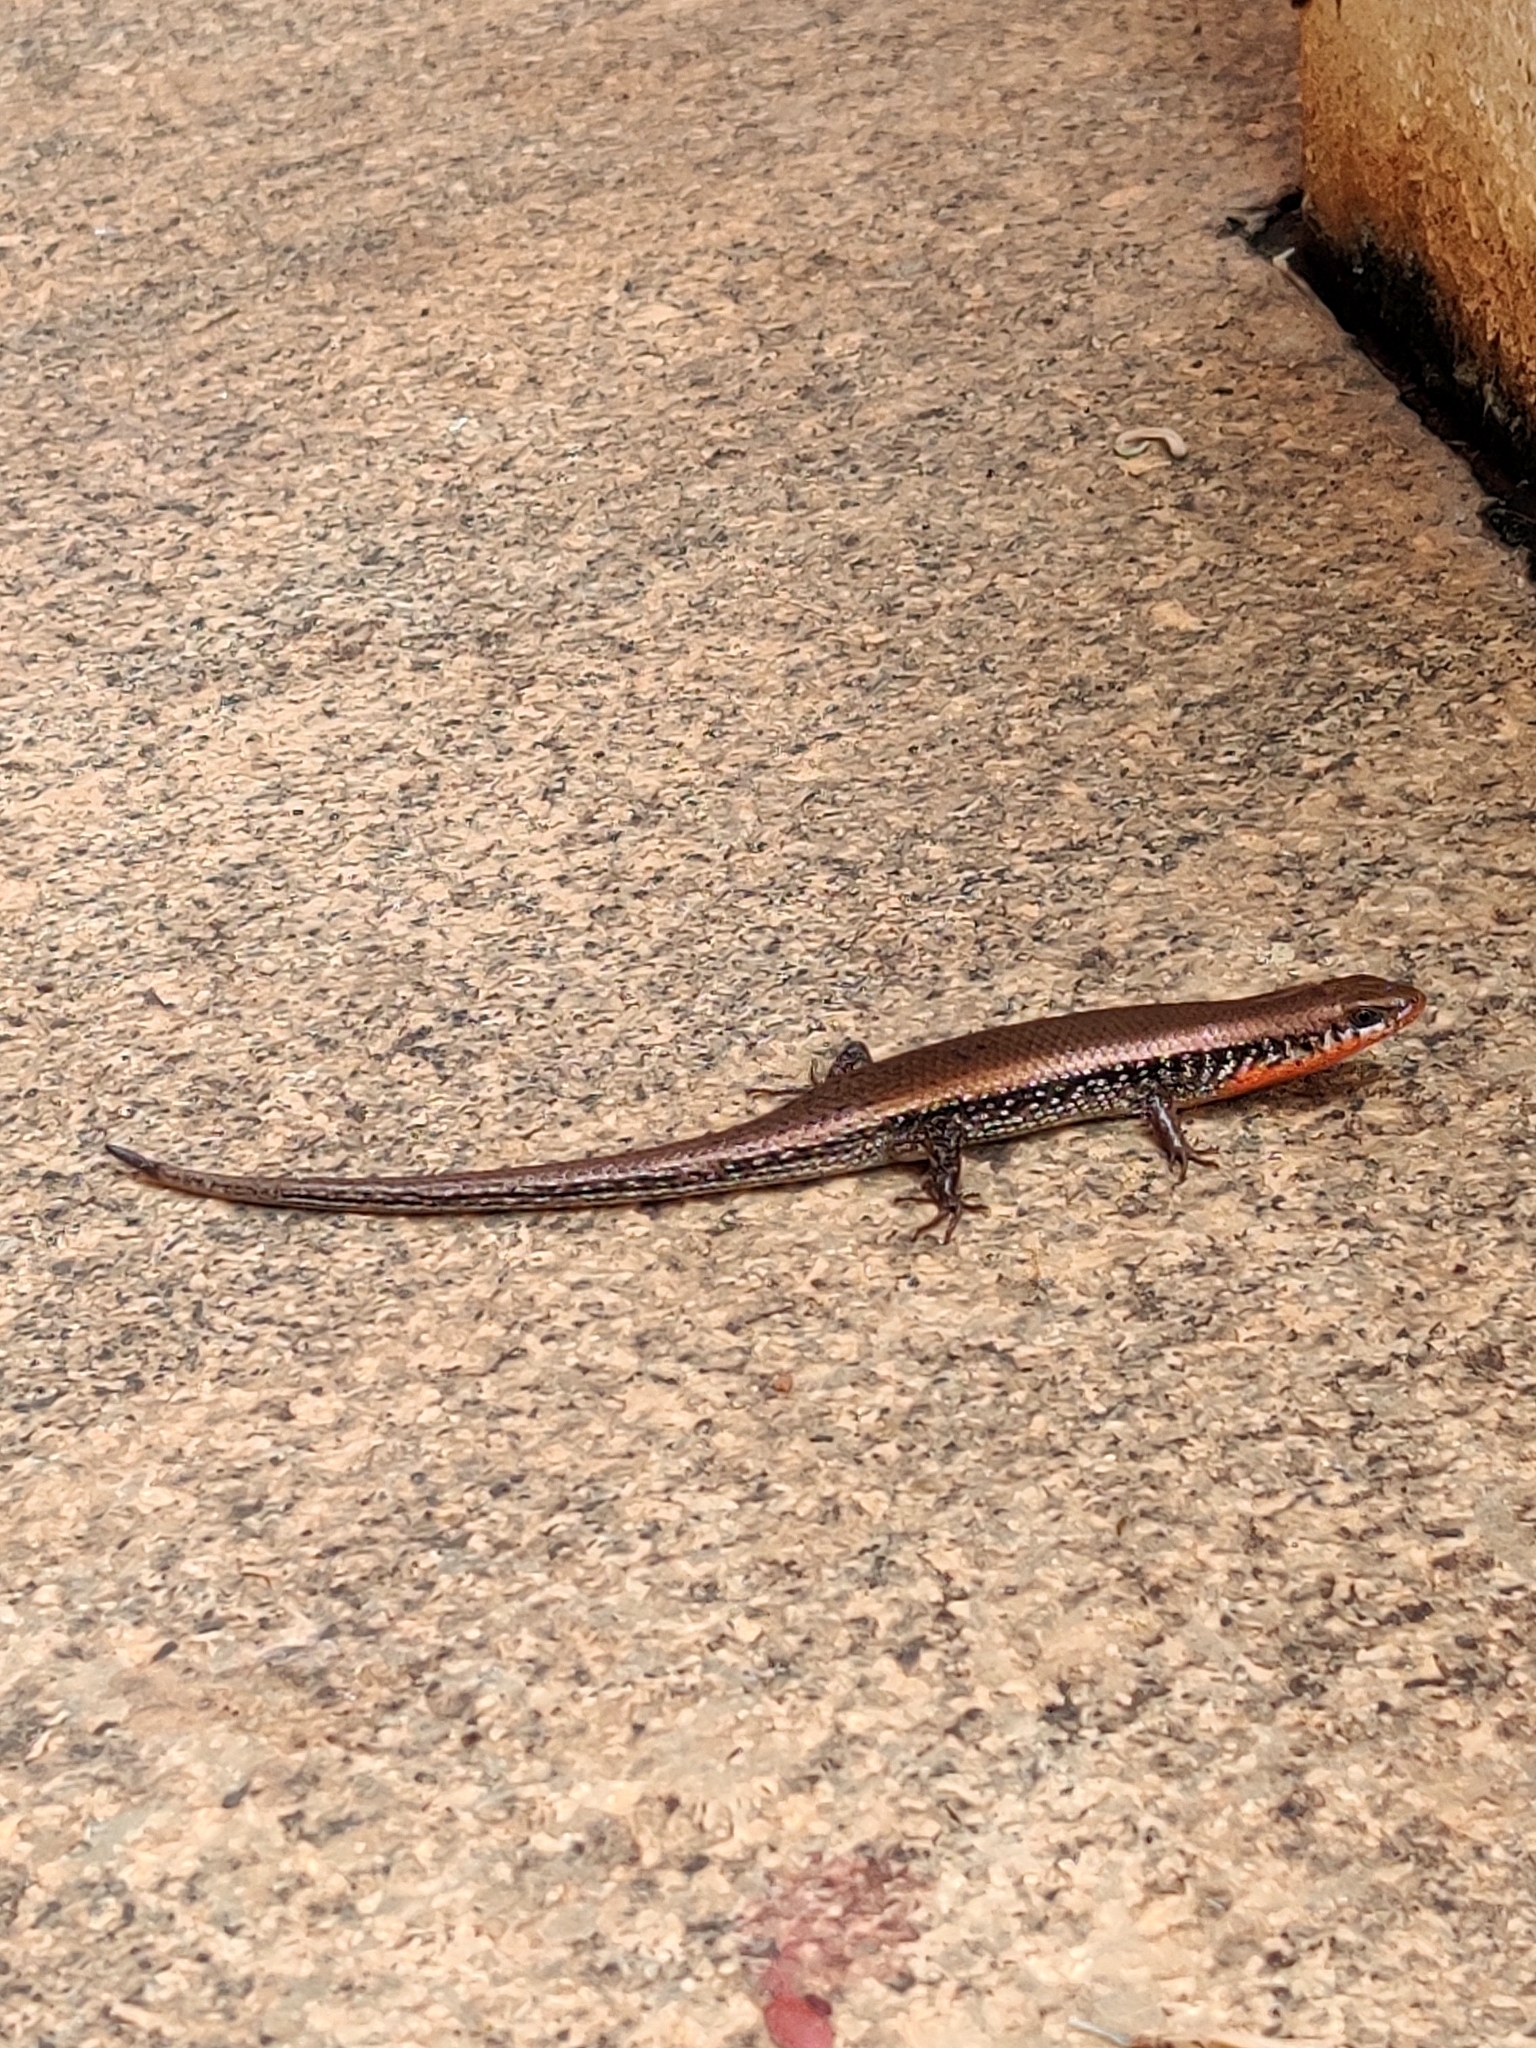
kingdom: Animalia
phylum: Chordata
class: Squamata
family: Scincidae
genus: Eutropis
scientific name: Eutropis macularia
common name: Bronze mabuya
